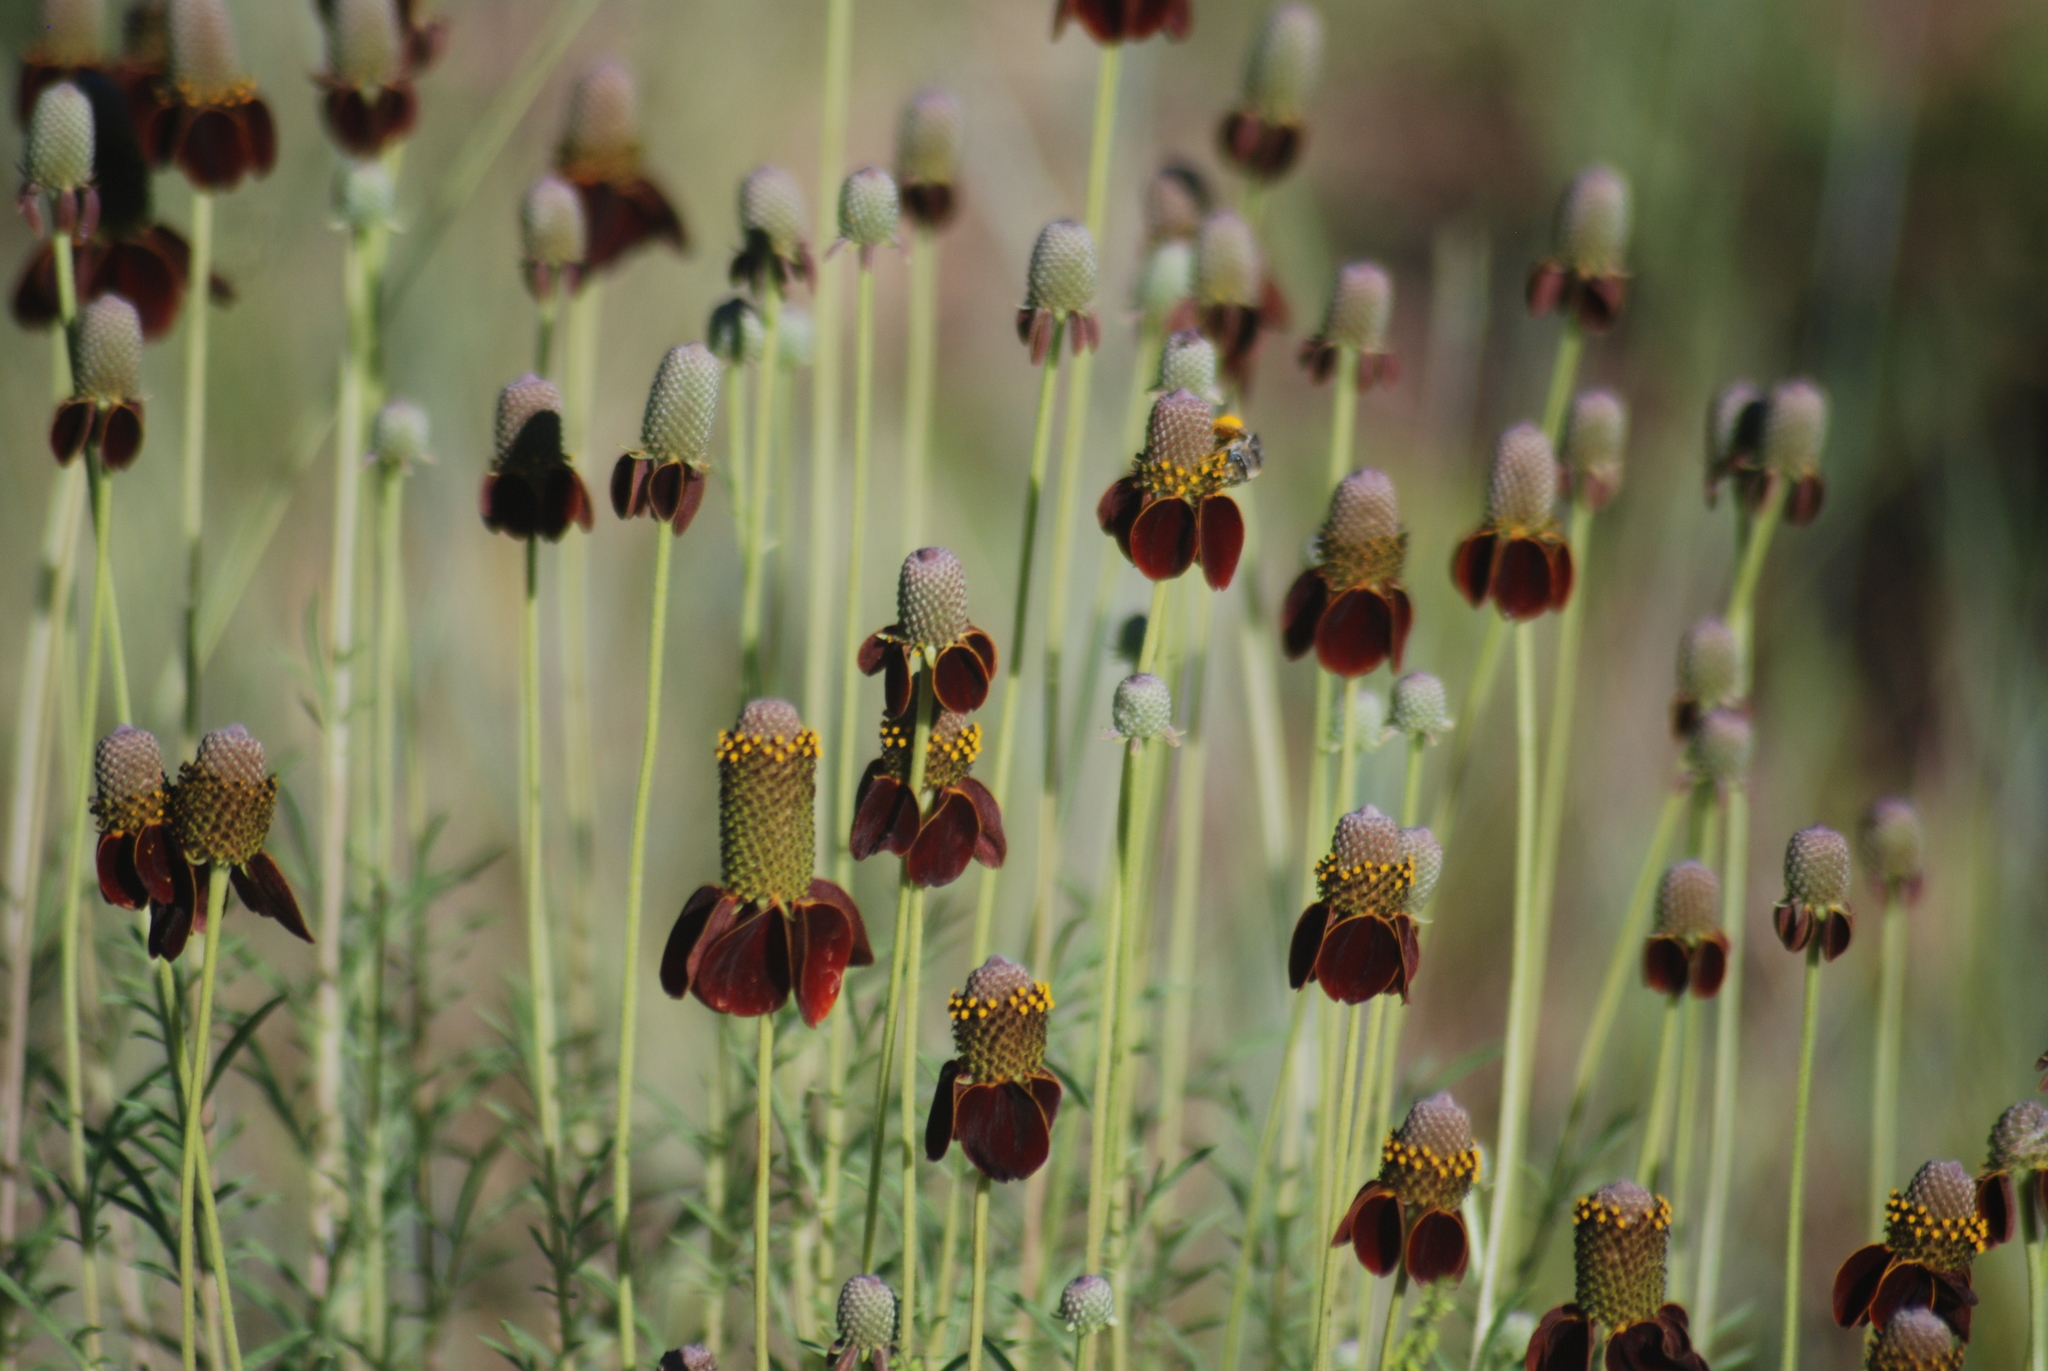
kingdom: Plantae
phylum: Tracheophyta
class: Magnoliopsida
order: Asterales
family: Asteraceae
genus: Ratibida
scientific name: Ratibida columnifera
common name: Prairie coneflower
